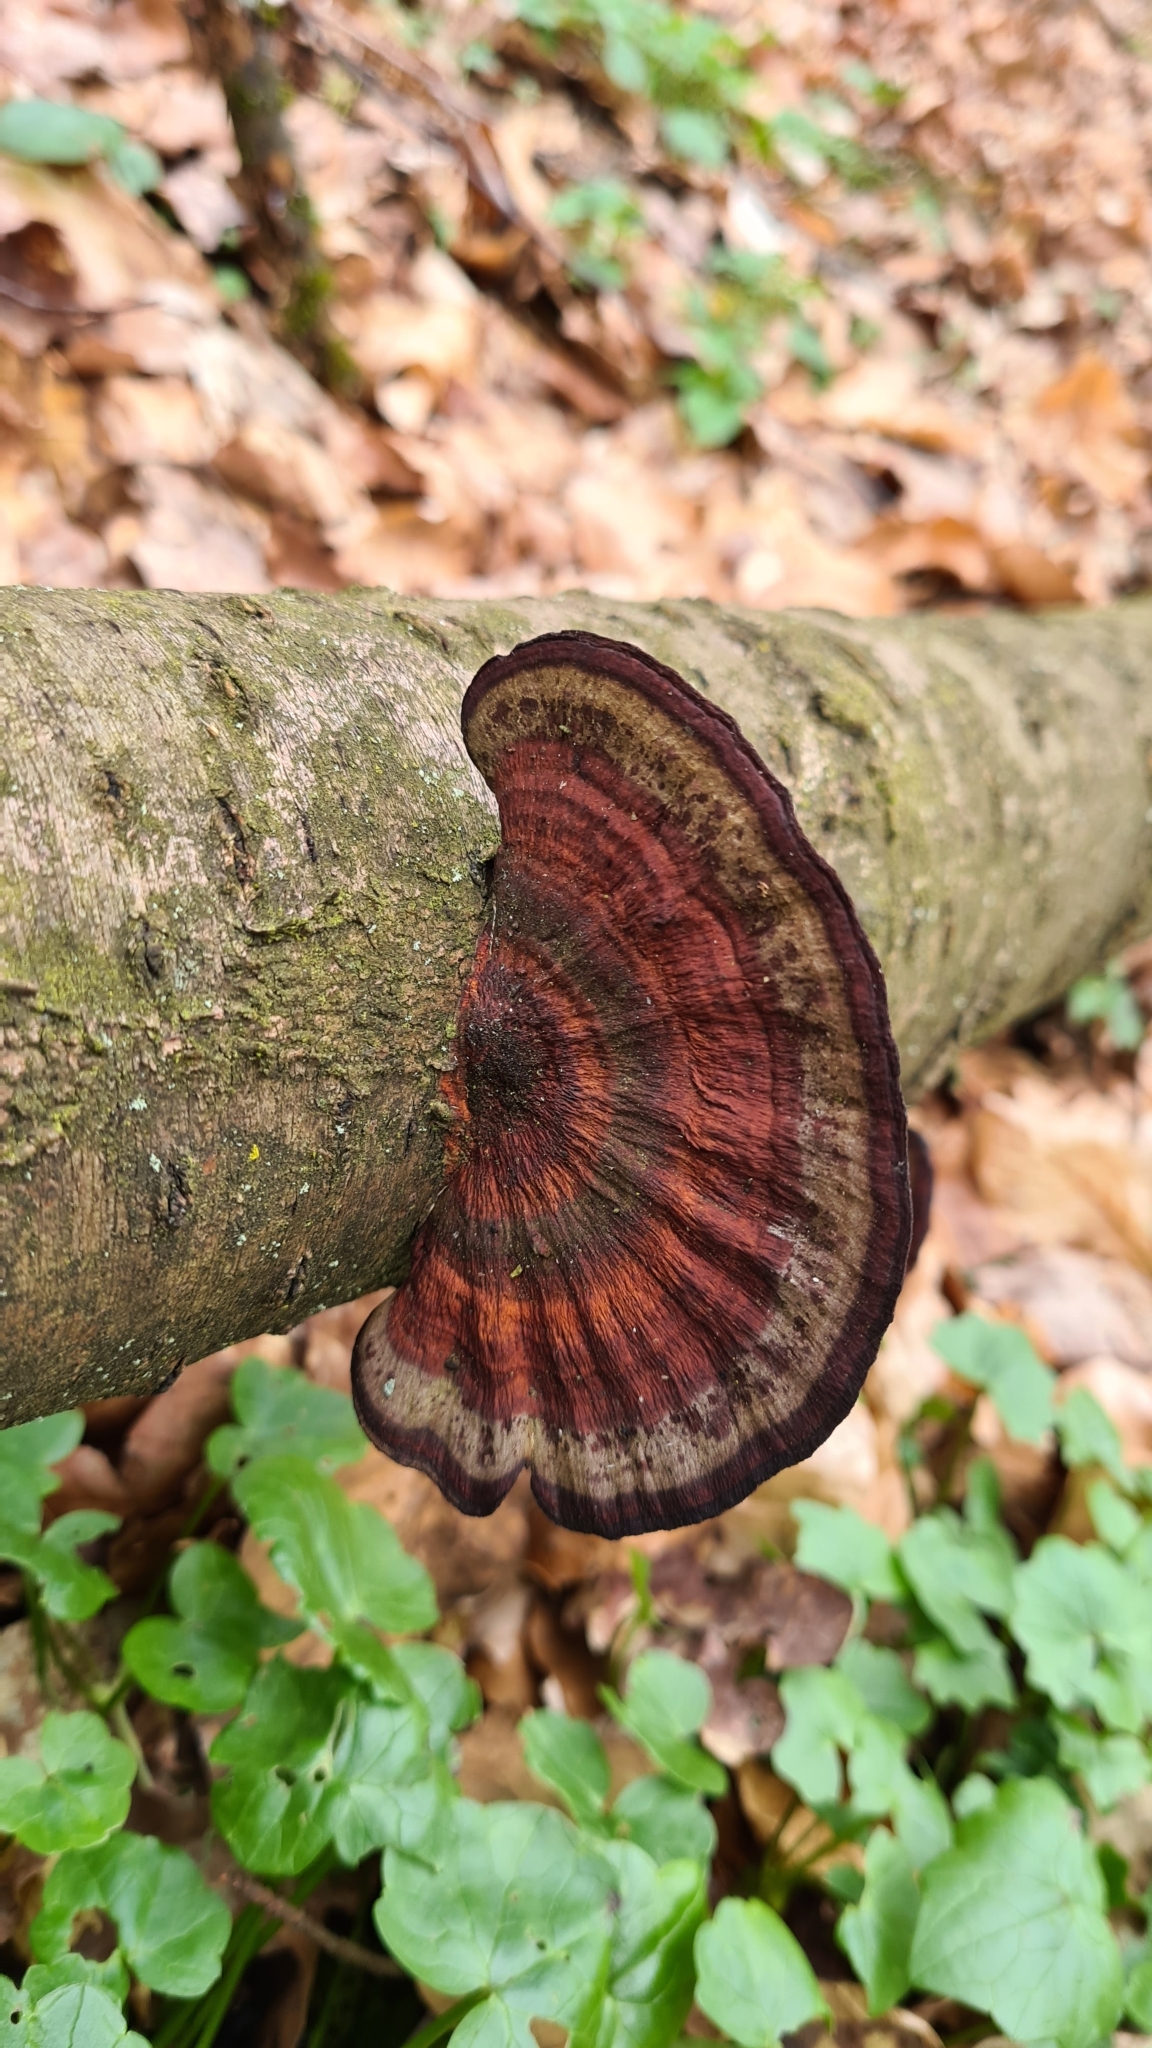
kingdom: Fungi
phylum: Basidiomycota
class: Agaricomycetes
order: Polyporales
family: Polyporaceae
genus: Daedaleopsis
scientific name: Daedaleopsis tricolor
